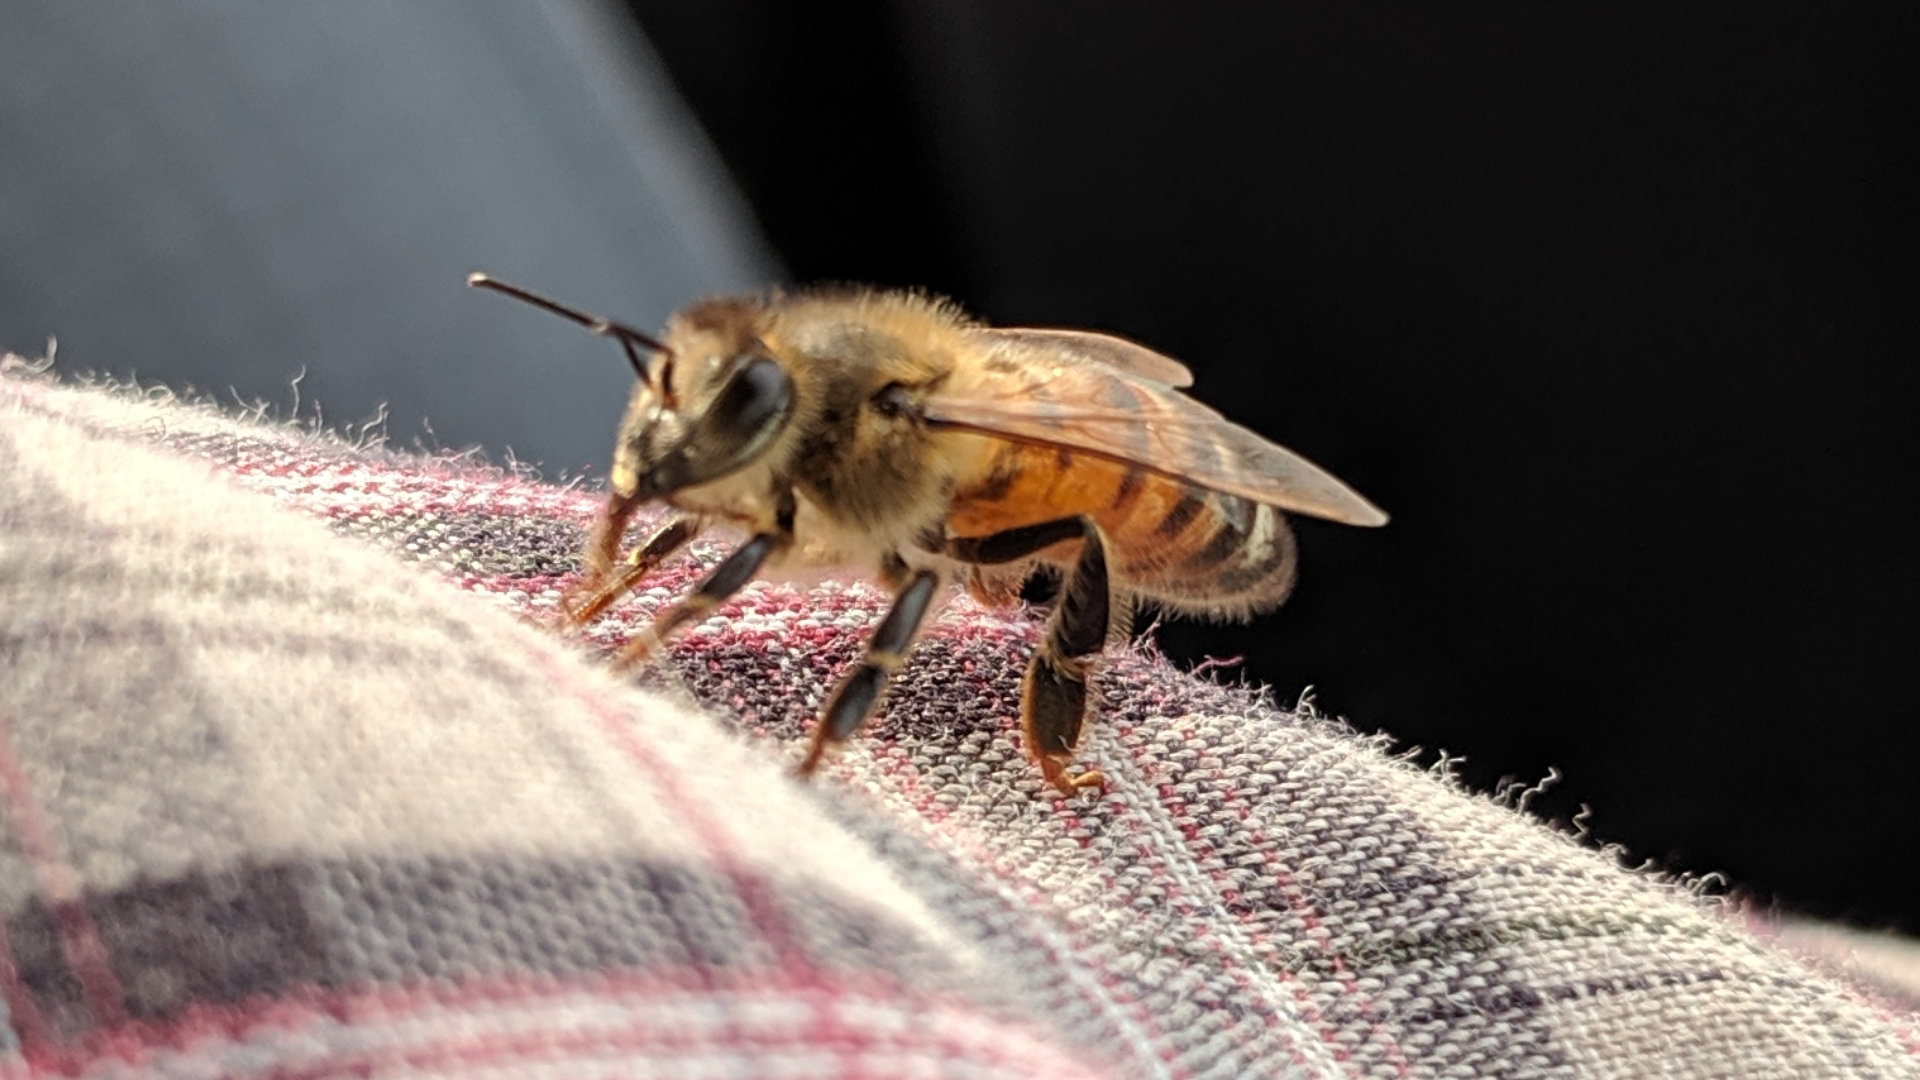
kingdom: Animalia
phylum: Arthropoda
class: Insecta
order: Hymenoptera
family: Apidae
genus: Apis
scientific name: Apis mellifera
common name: Honey bee
